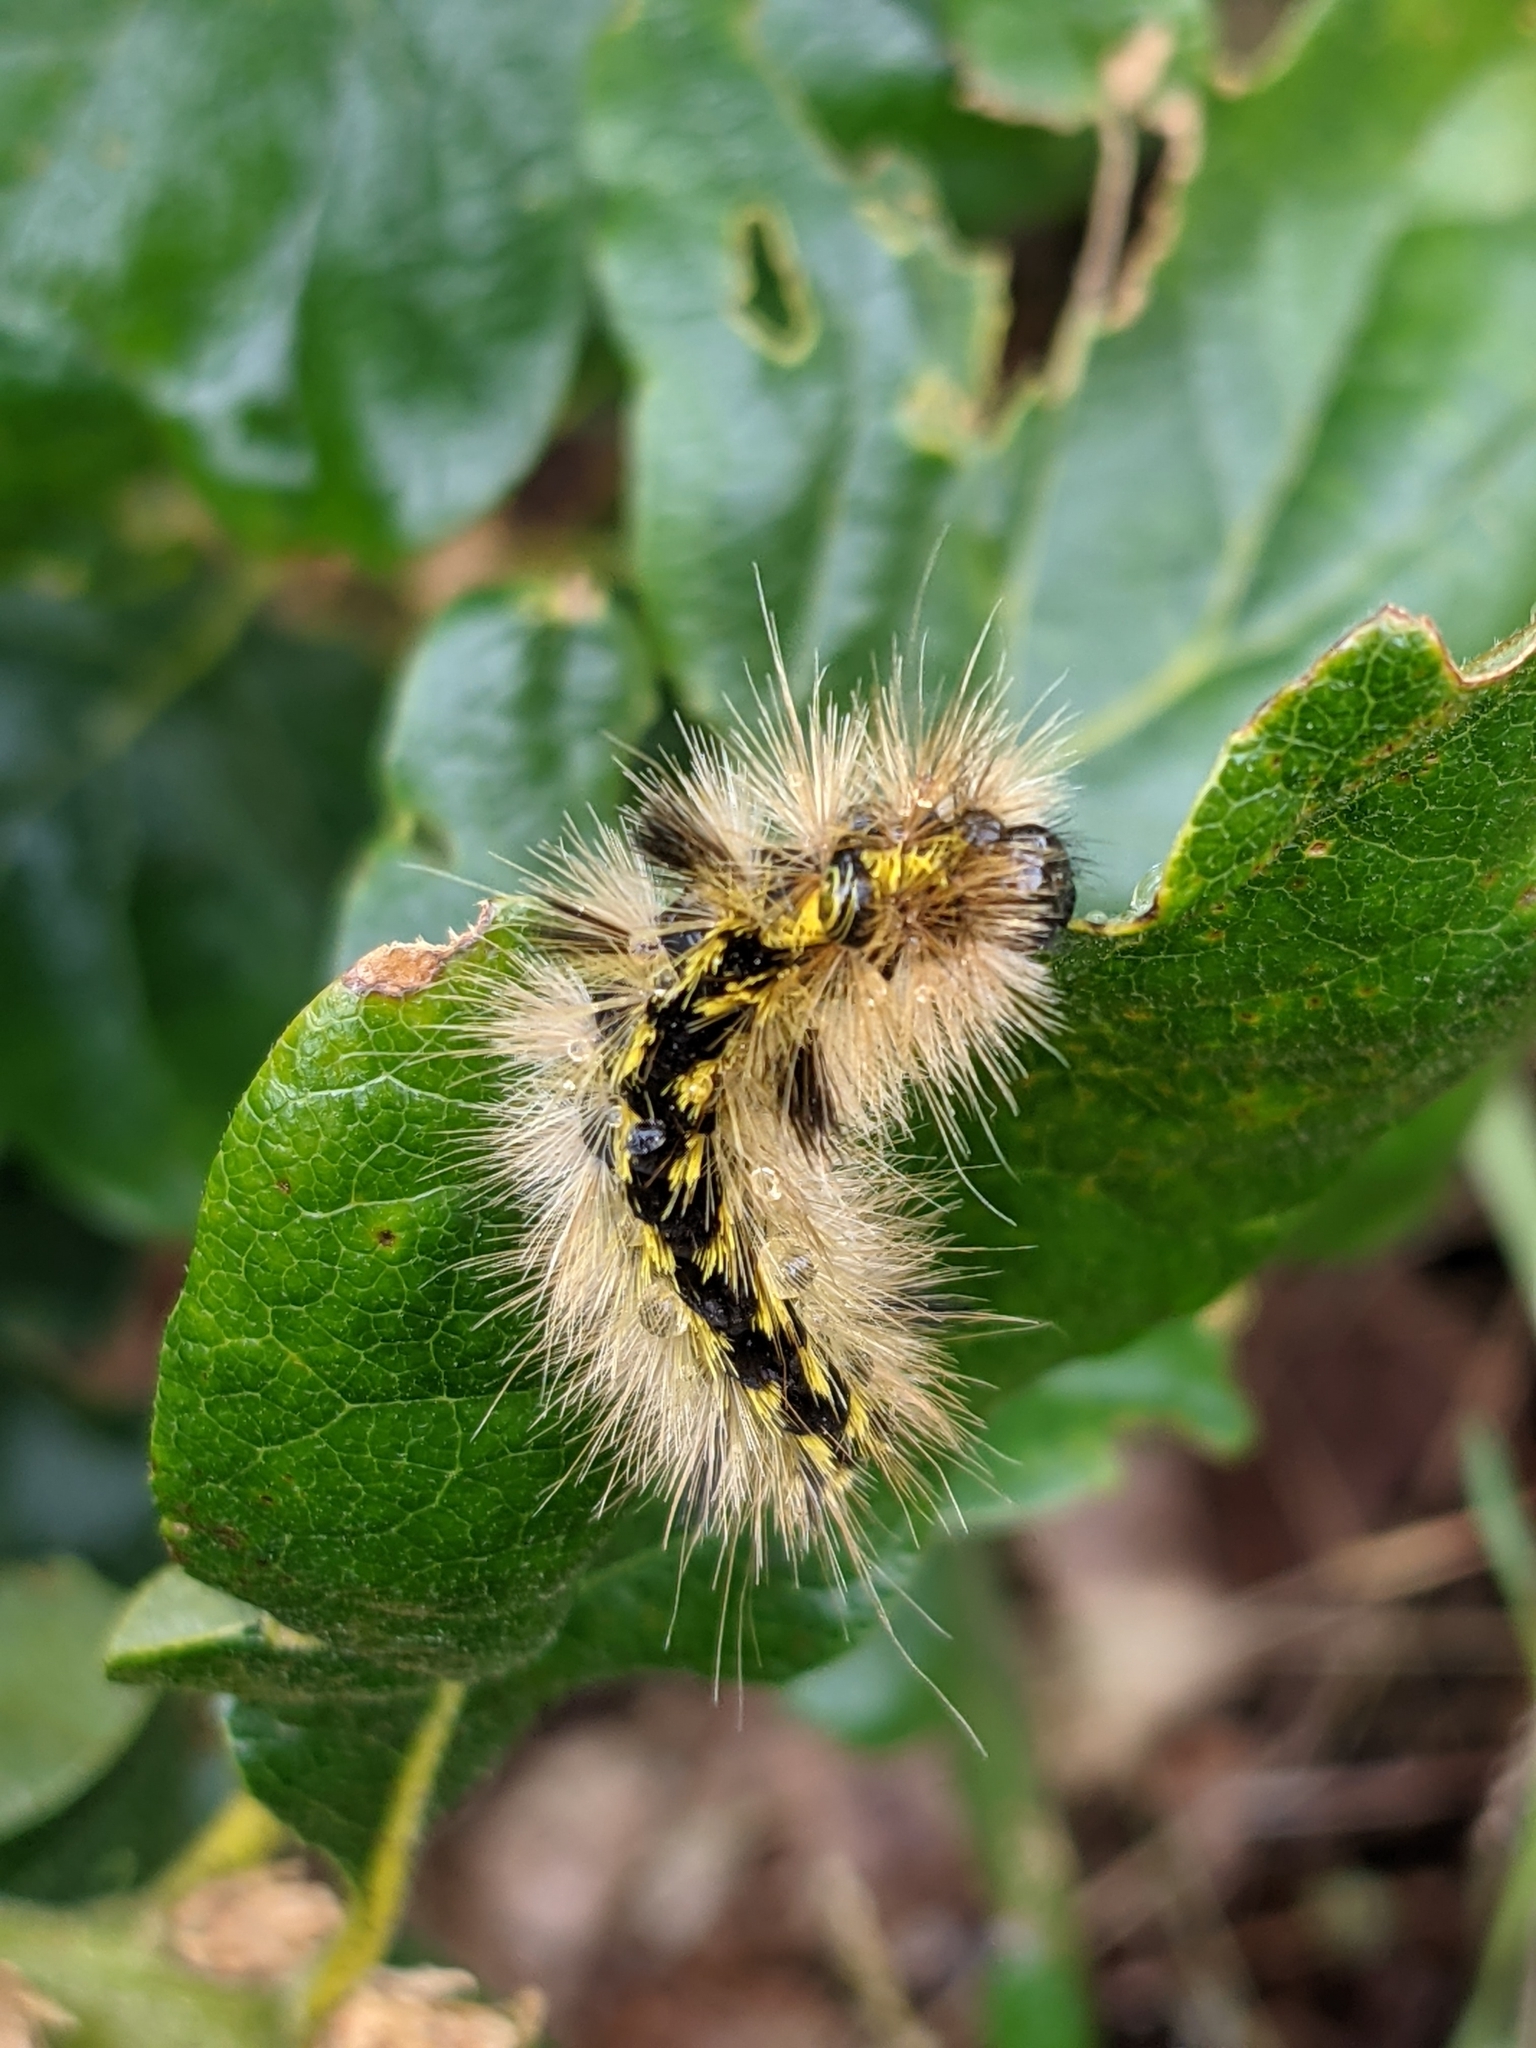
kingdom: Animalia
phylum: Arthropoda
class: Insecta
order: Lepidoptera
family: Erebidae
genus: Lophocampa
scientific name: Lophocampa argentata
